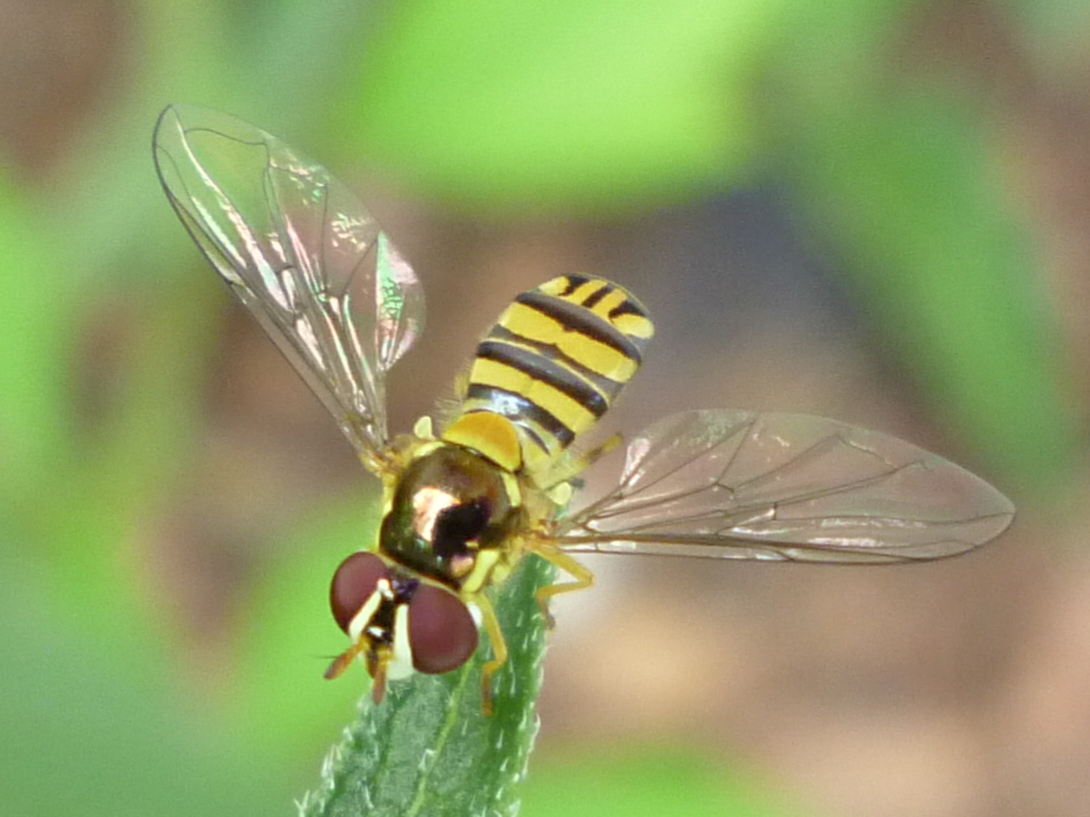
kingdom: Animalia
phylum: Arthropoda
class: Insecta
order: Diptera
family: Syrphidae
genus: Allograpta
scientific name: Allograpta obliqua
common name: Common oblique syrphid
